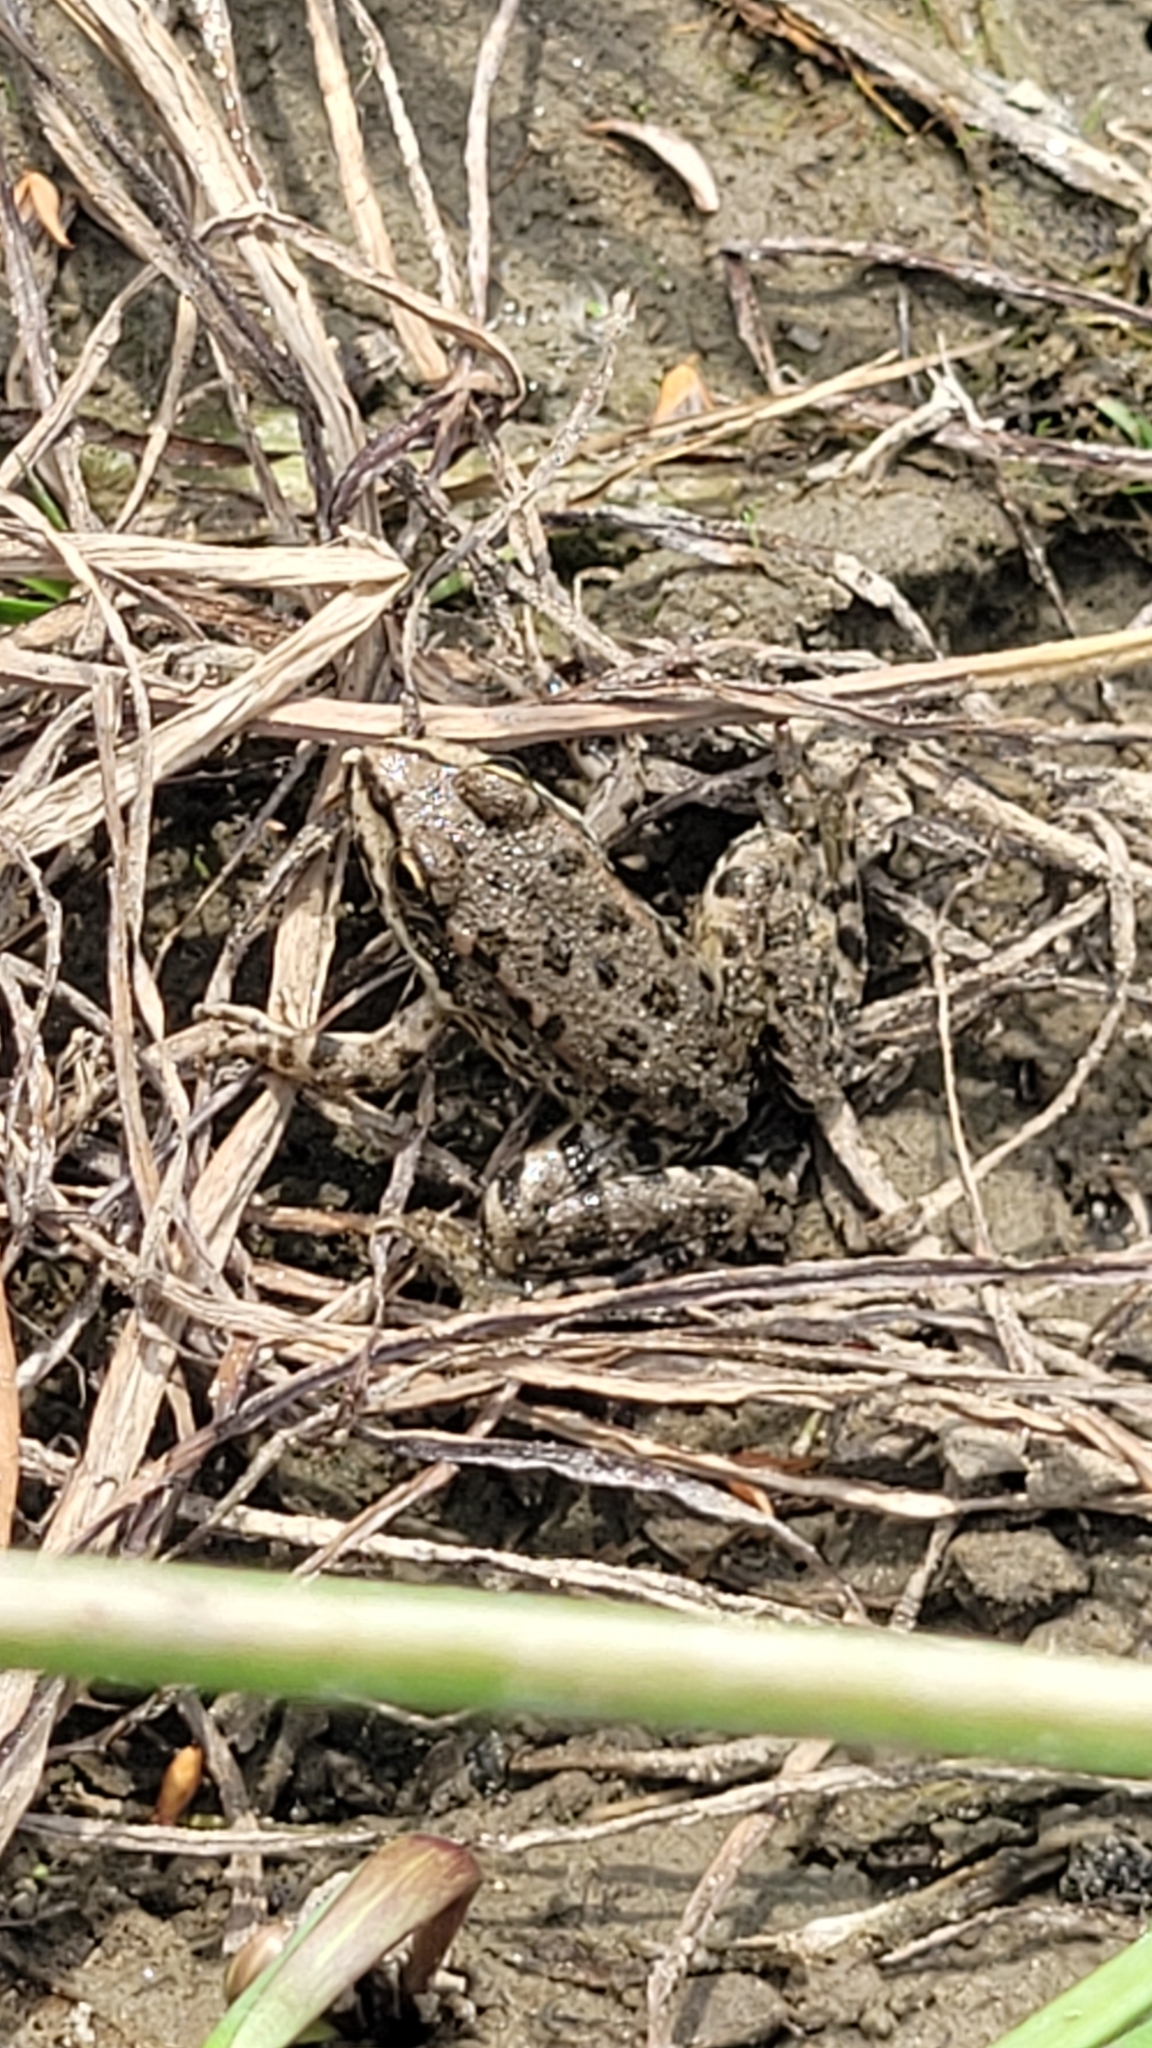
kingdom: Animalia
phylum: Chordata
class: Amphibia
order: Anura
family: Ranidae
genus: Pelophylax
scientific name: Pelophylax ridibundus
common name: Marsh frog
